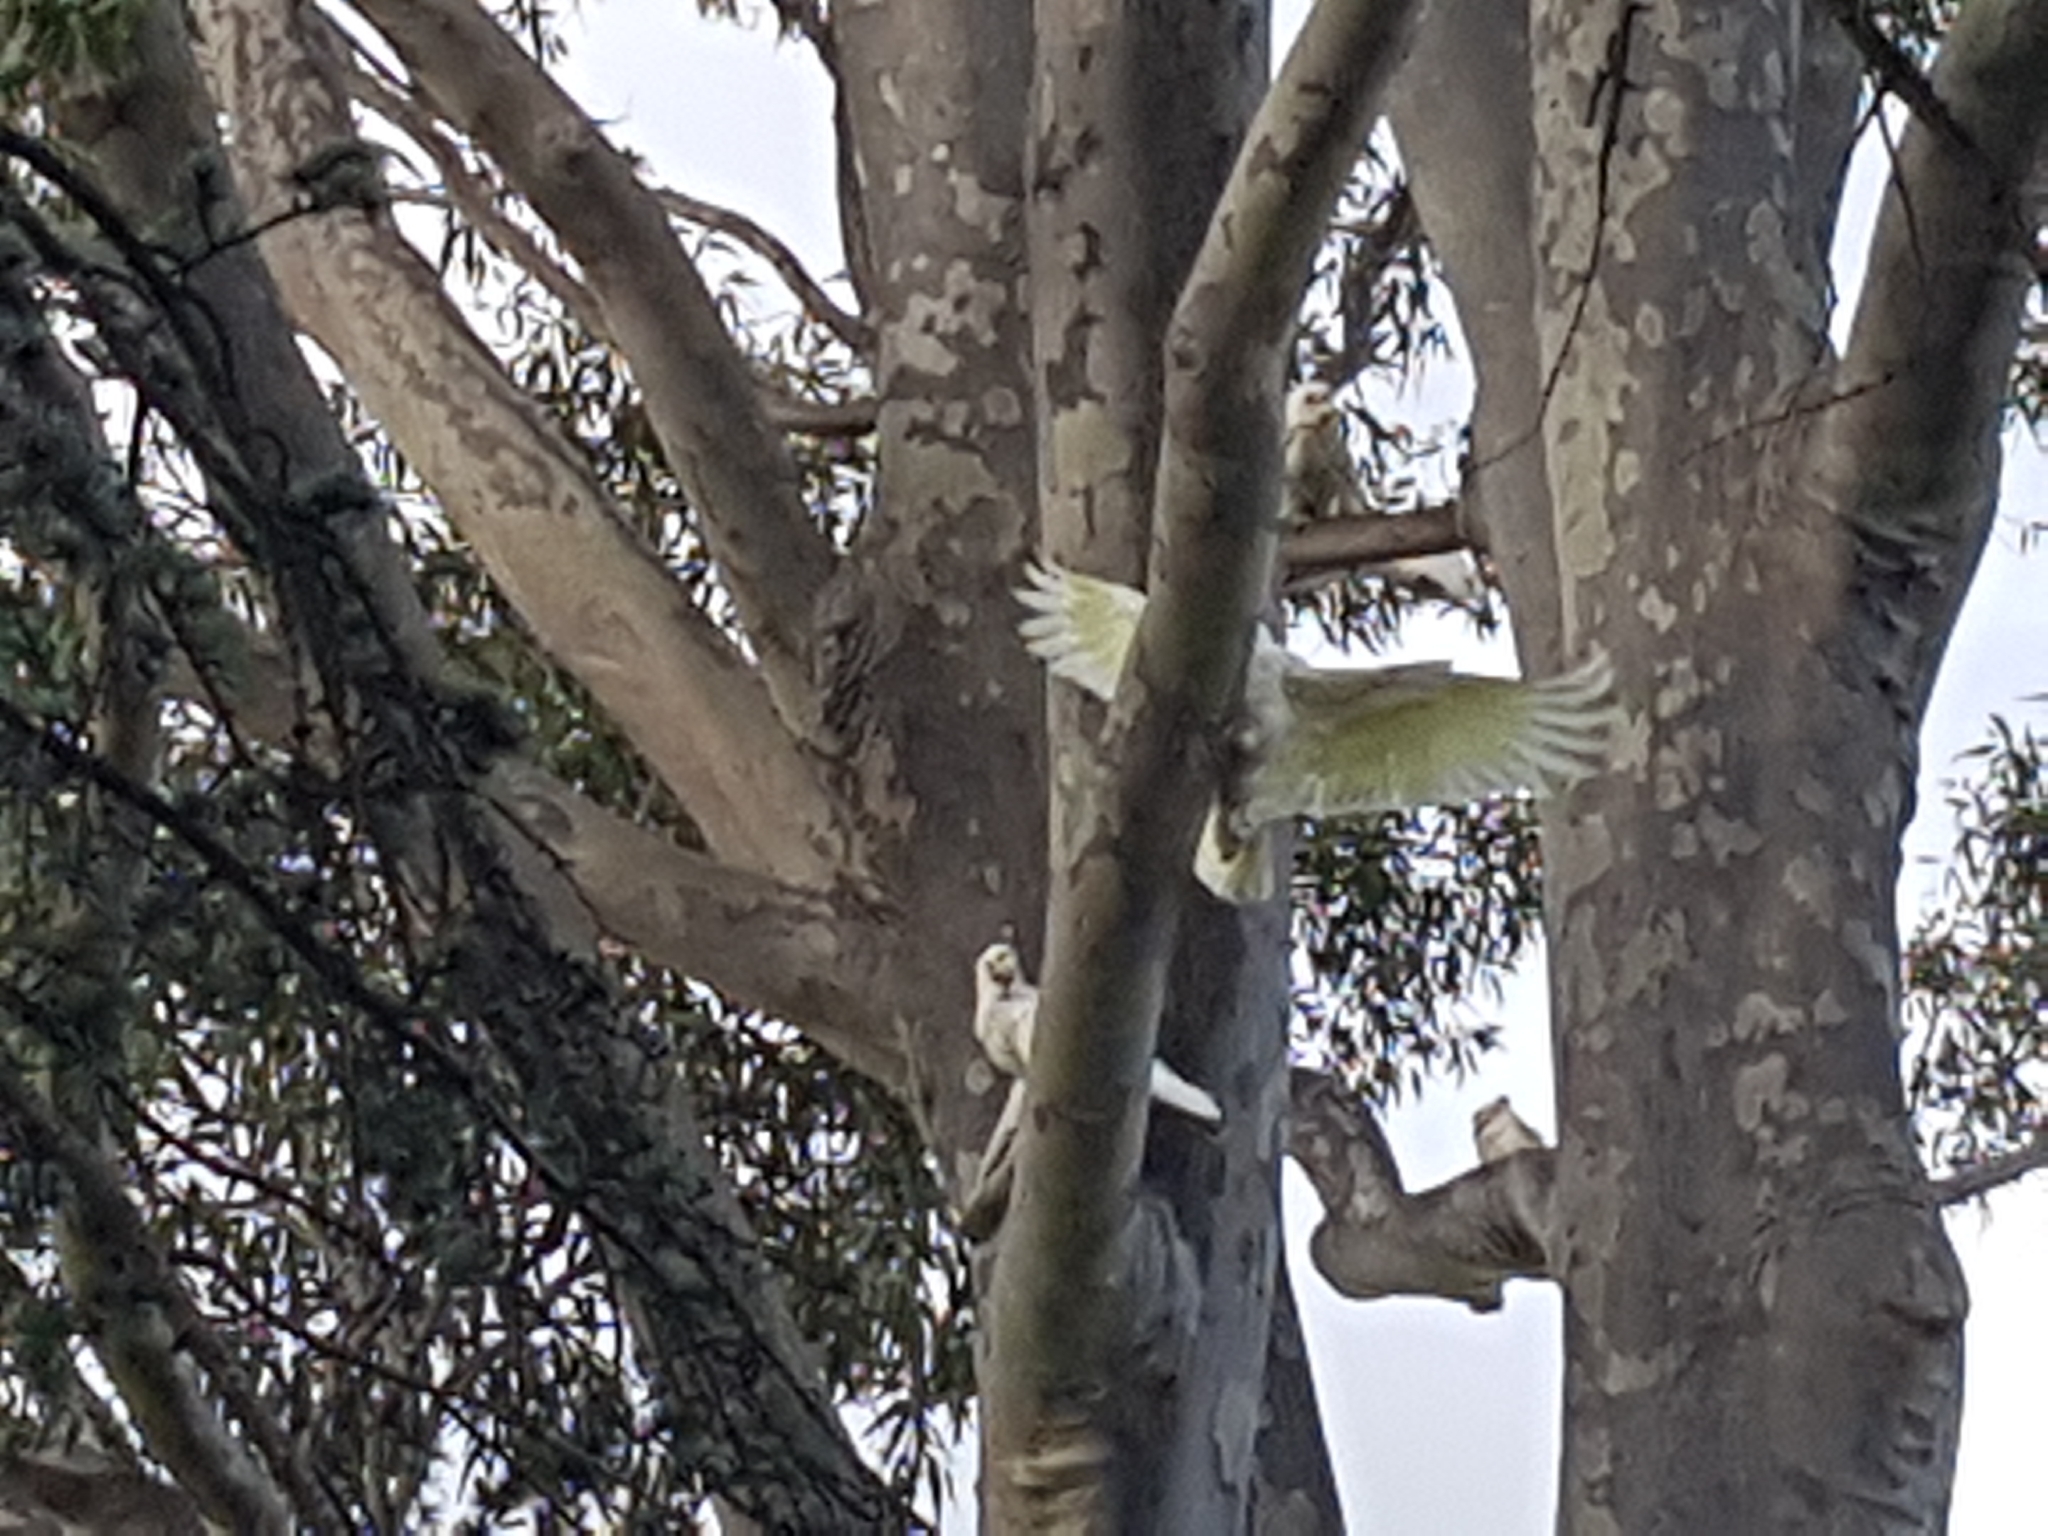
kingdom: Animalia
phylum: Chordata
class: Aves
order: Psittaciformes
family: Psittacidae
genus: Cacatua
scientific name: Cacatua sanguinea
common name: Little corella
